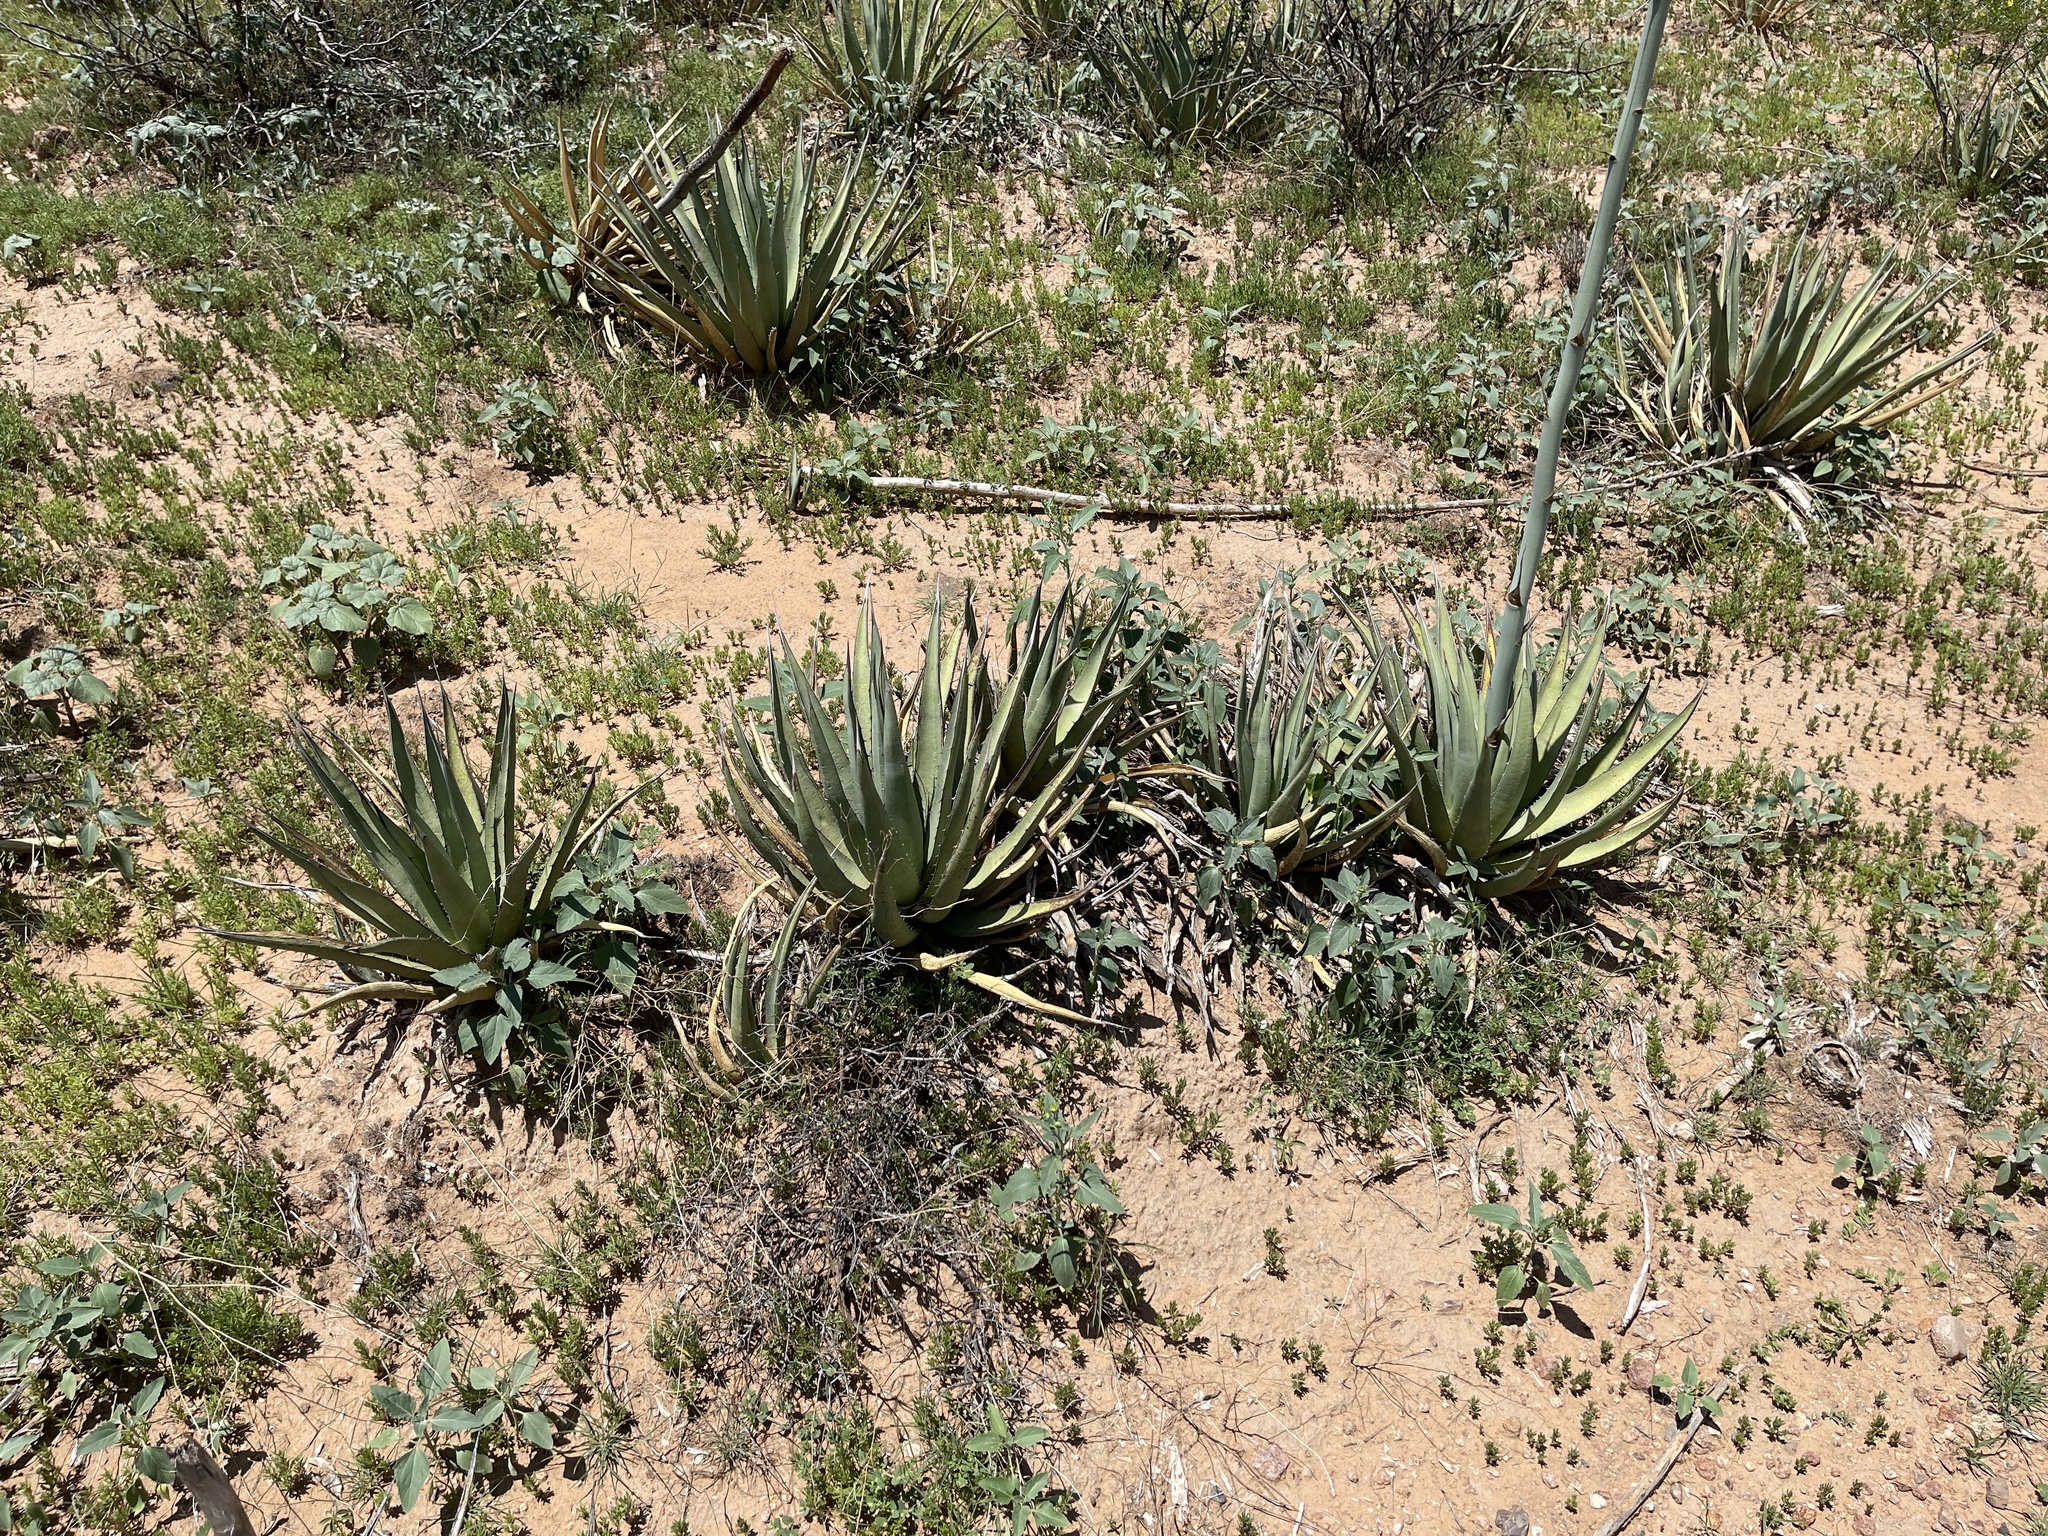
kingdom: Plantae
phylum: Tracheophyta
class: Liliopsida
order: Asparagales
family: Asparagaceae
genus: Agave
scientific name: Agave lechuguilla
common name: Lecheguilla agave
